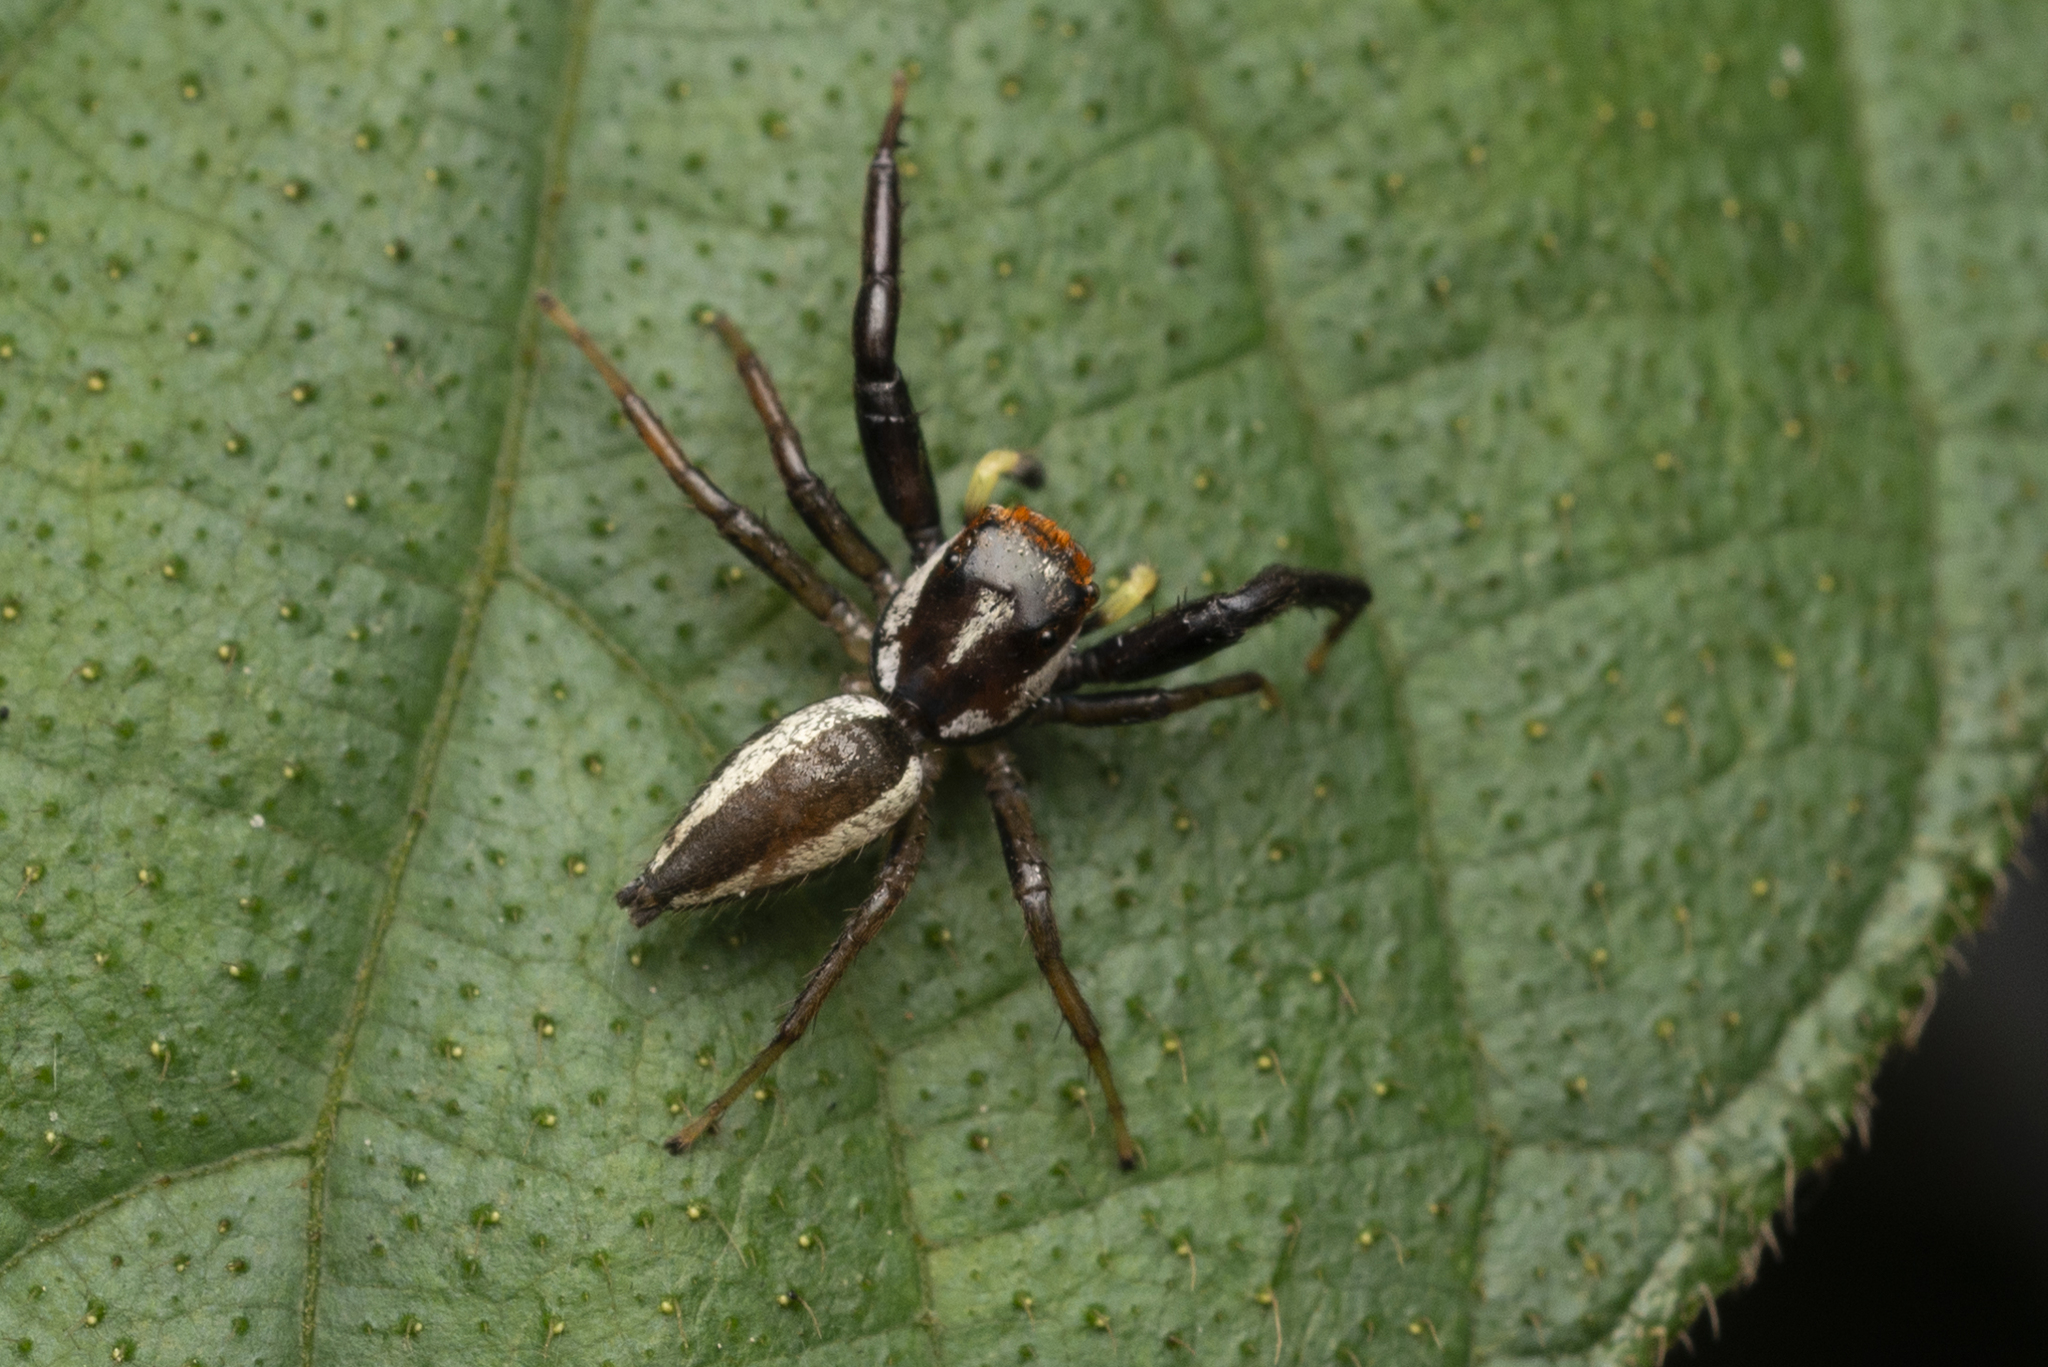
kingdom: Animalia
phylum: Arthropoda
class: Arachnida
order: Araneae
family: Salticidae
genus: Epocilla
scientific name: Epocilla blairei
